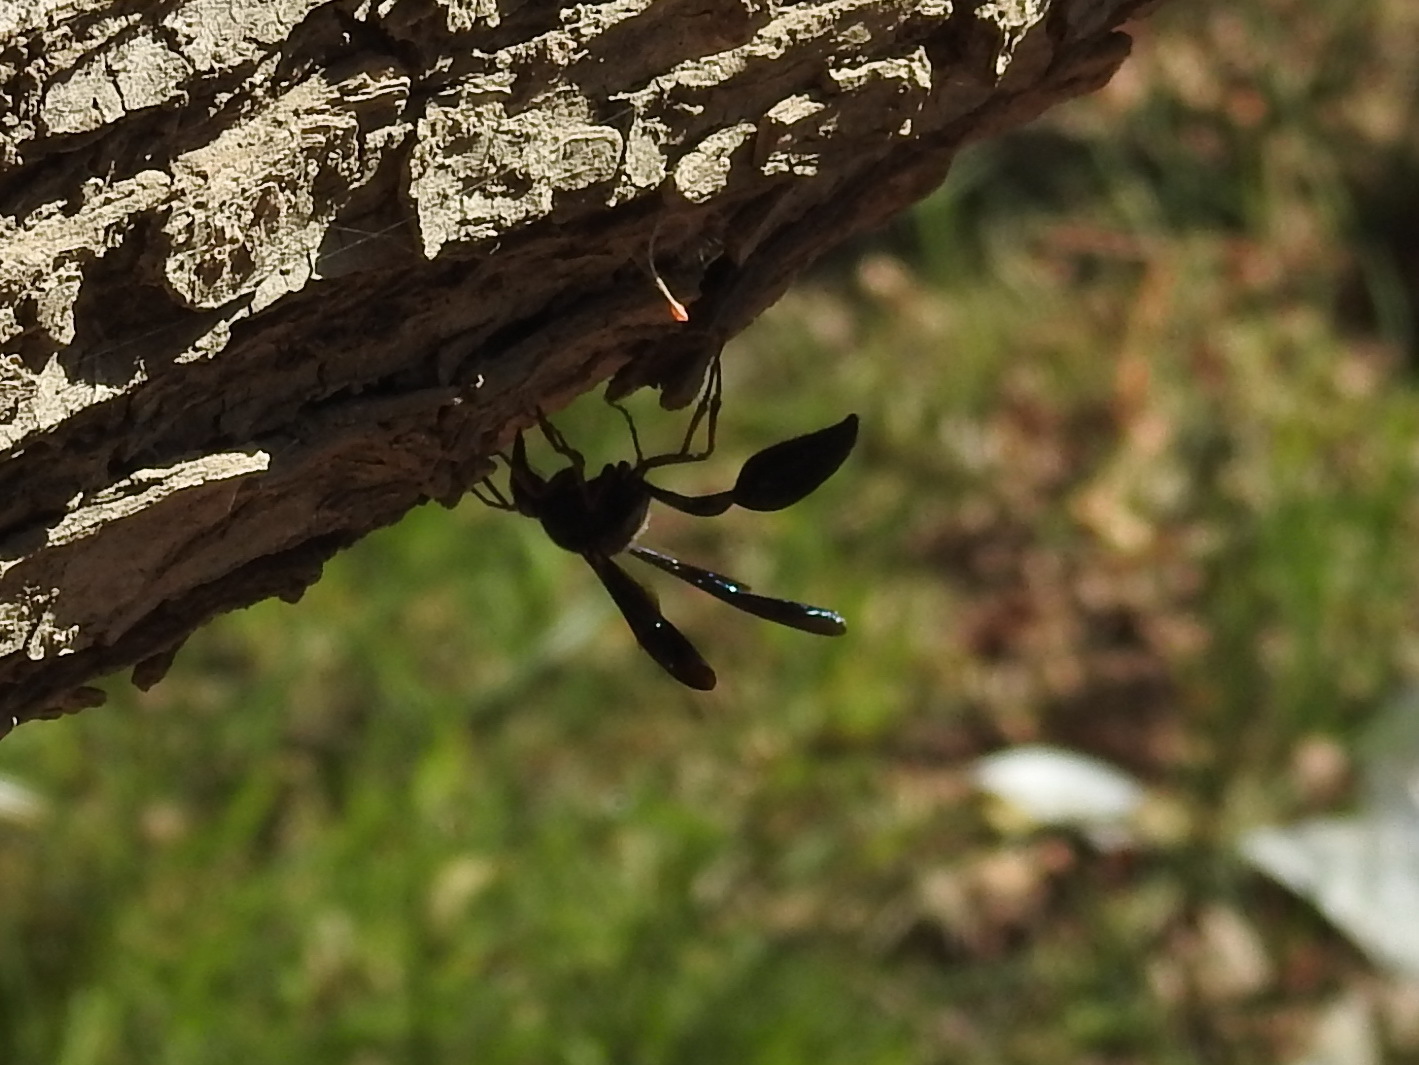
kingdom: Animalia
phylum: Arthropoda
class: Insecta
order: Hymenoptera
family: Eumenidae
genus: Delta
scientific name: Delta emarginatum
